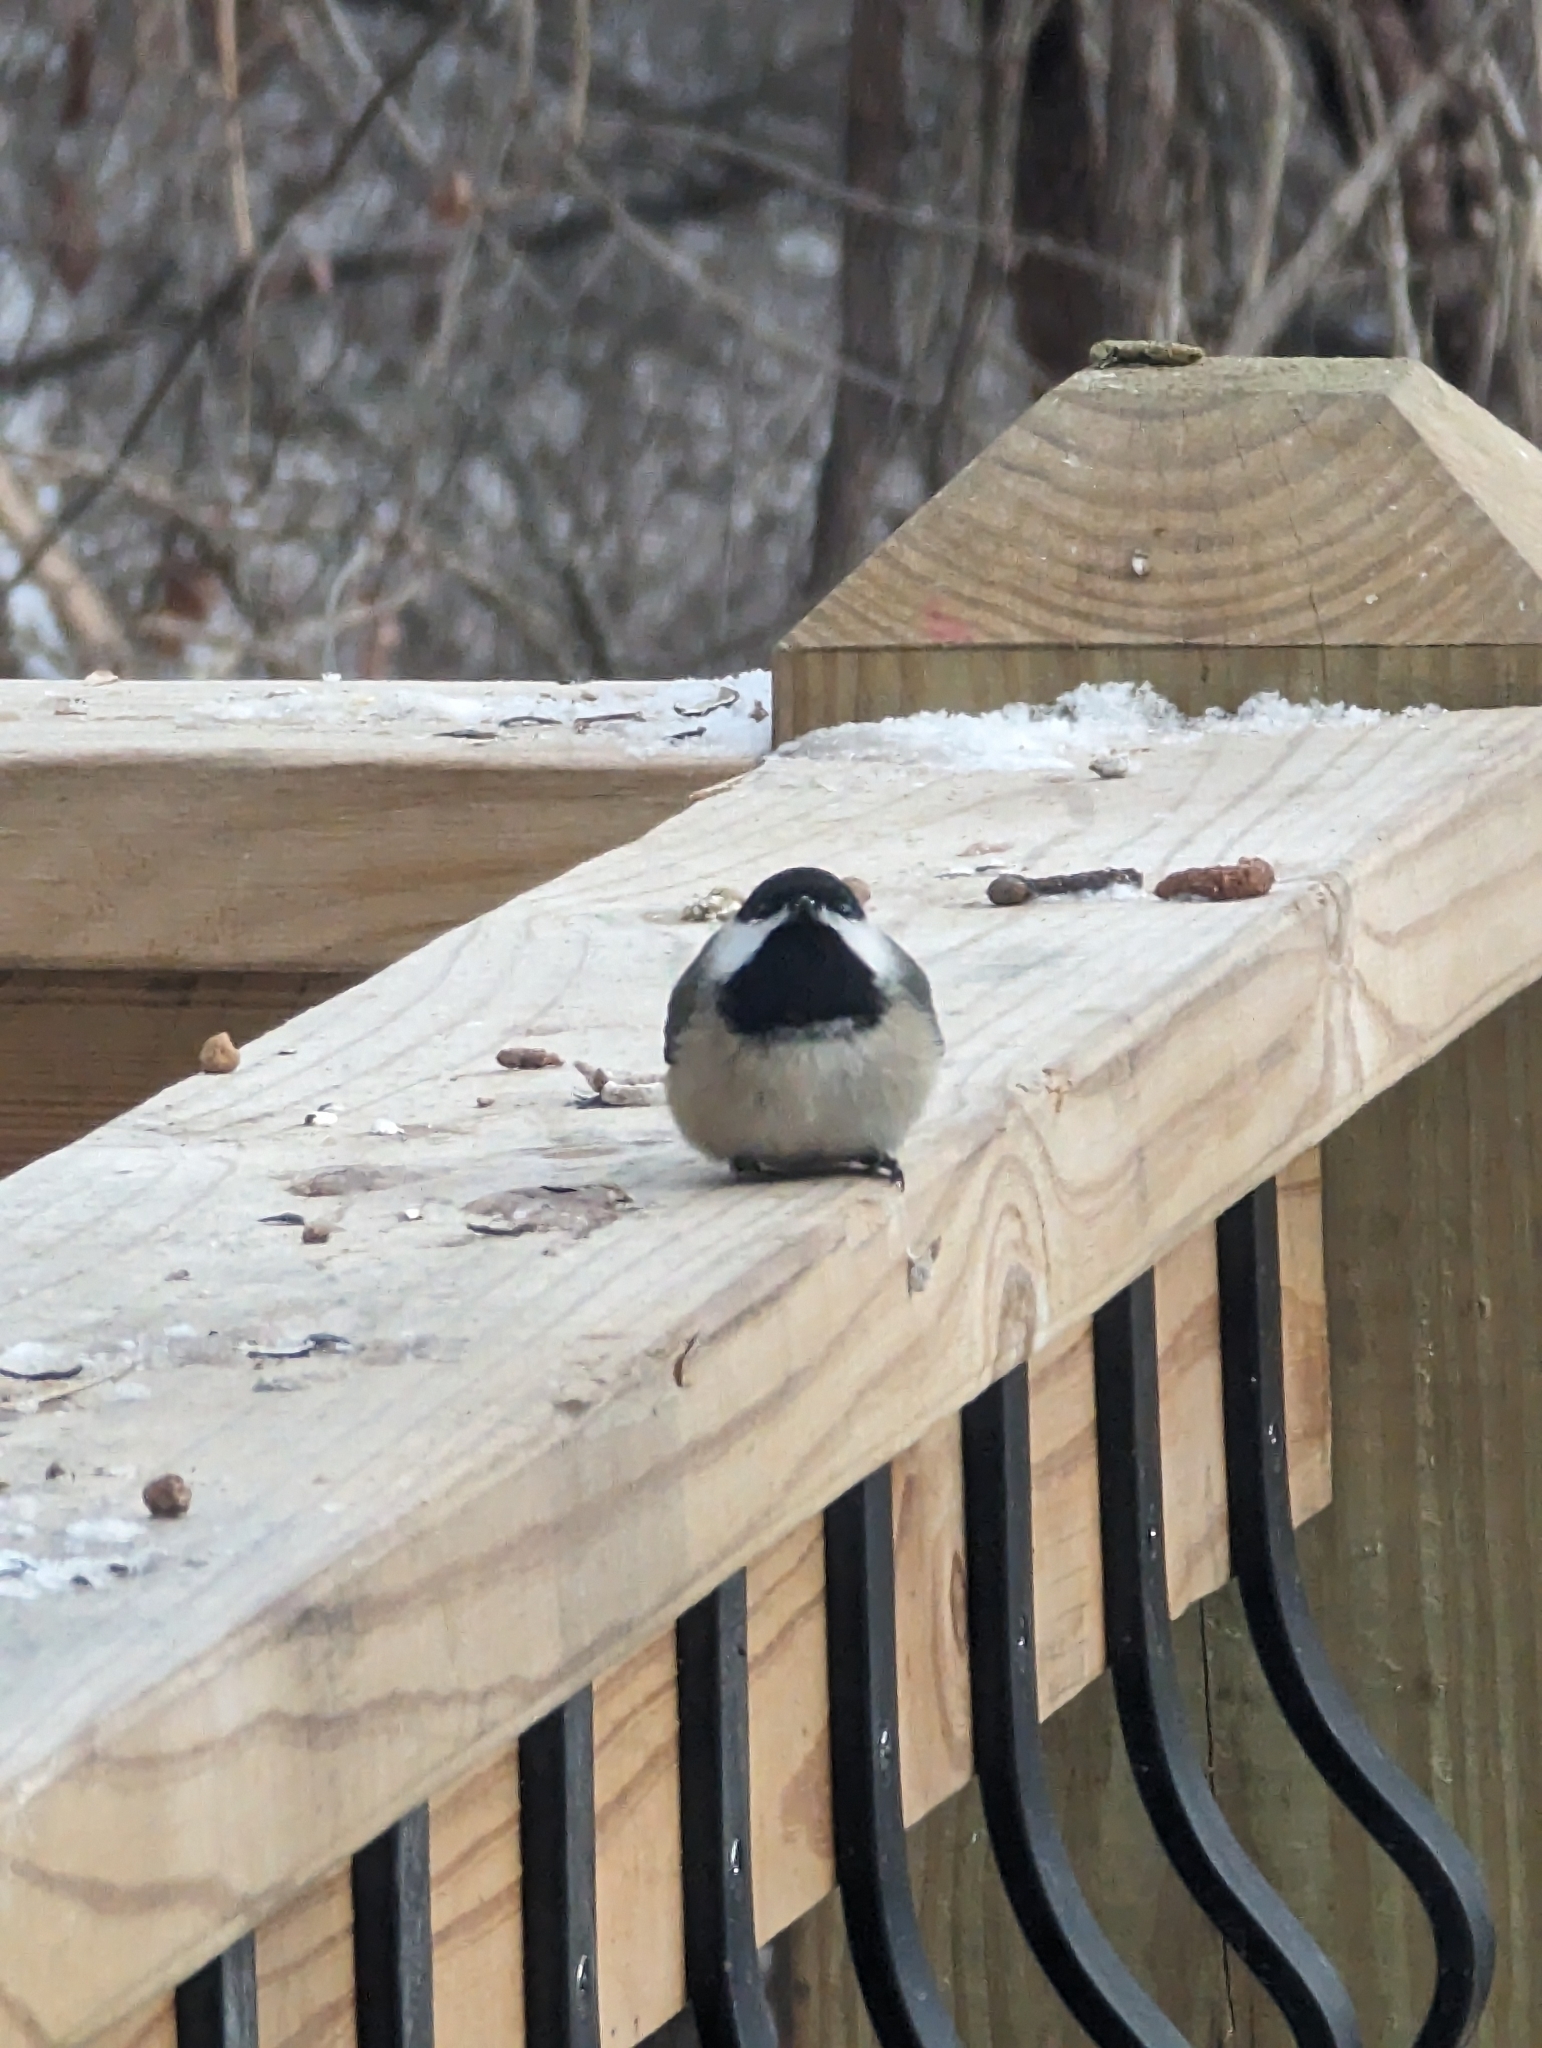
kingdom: Animalia
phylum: Chordata
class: Aves
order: Passeriformes
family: Paridae
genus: Poecile
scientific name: Poecile
